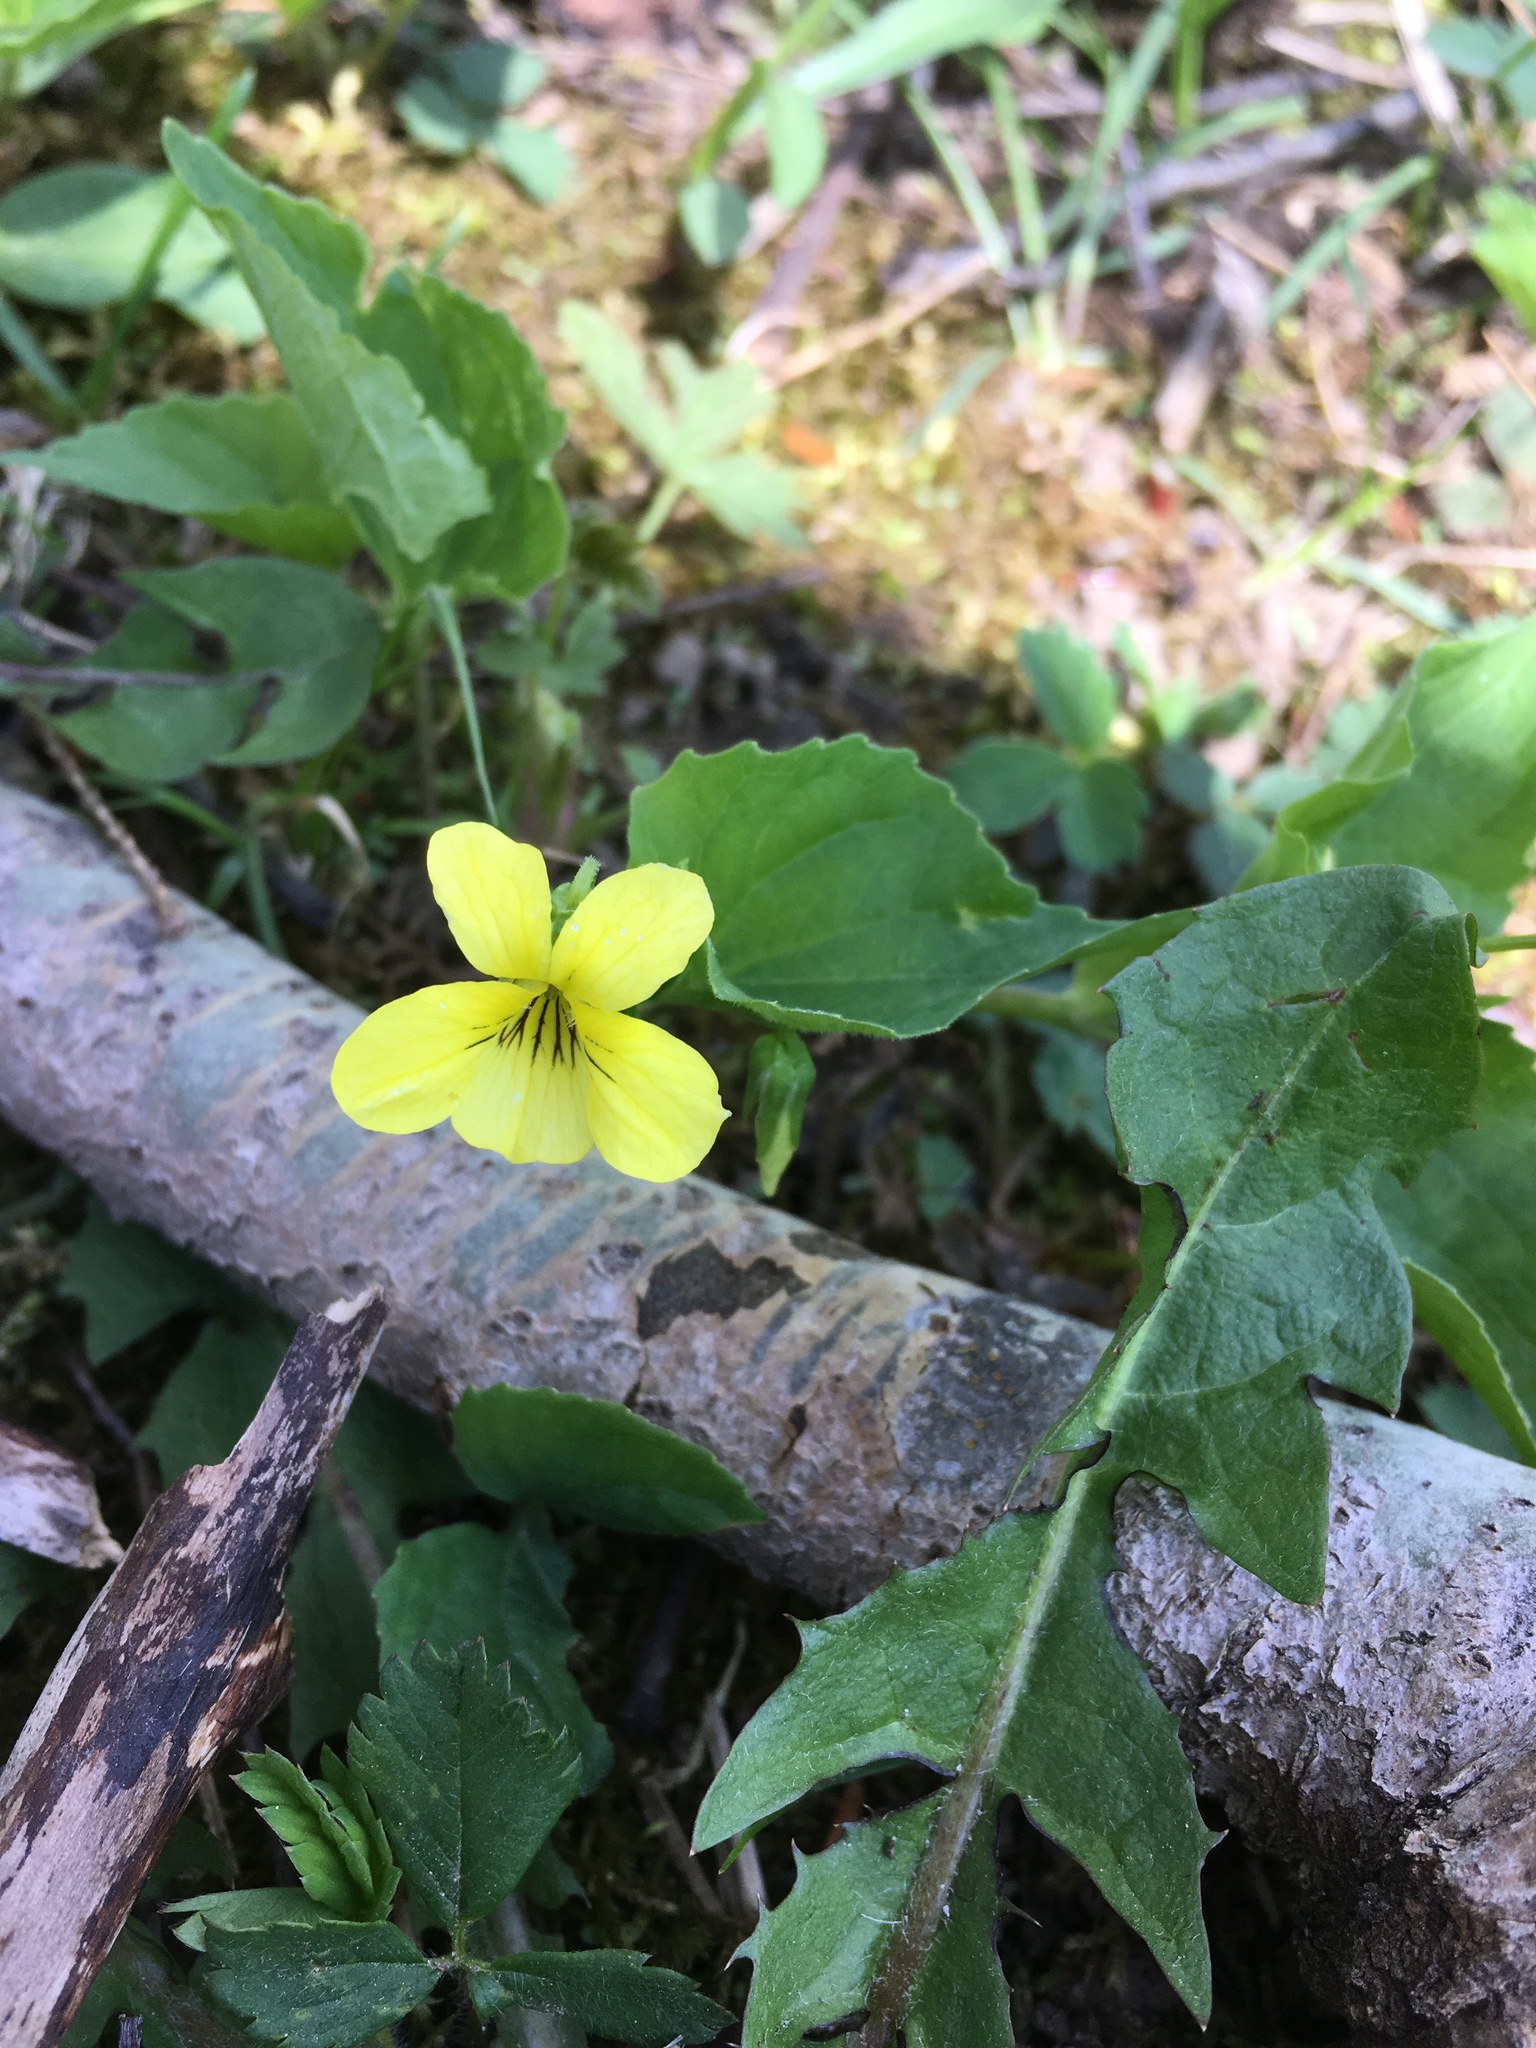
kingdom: Plantae
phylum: Tracheophyta
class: Magnoliopsida
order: Malpighiales
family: Violaceae
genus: Viola
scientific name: Viola eriocarpa
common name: Smooth yellow violet
